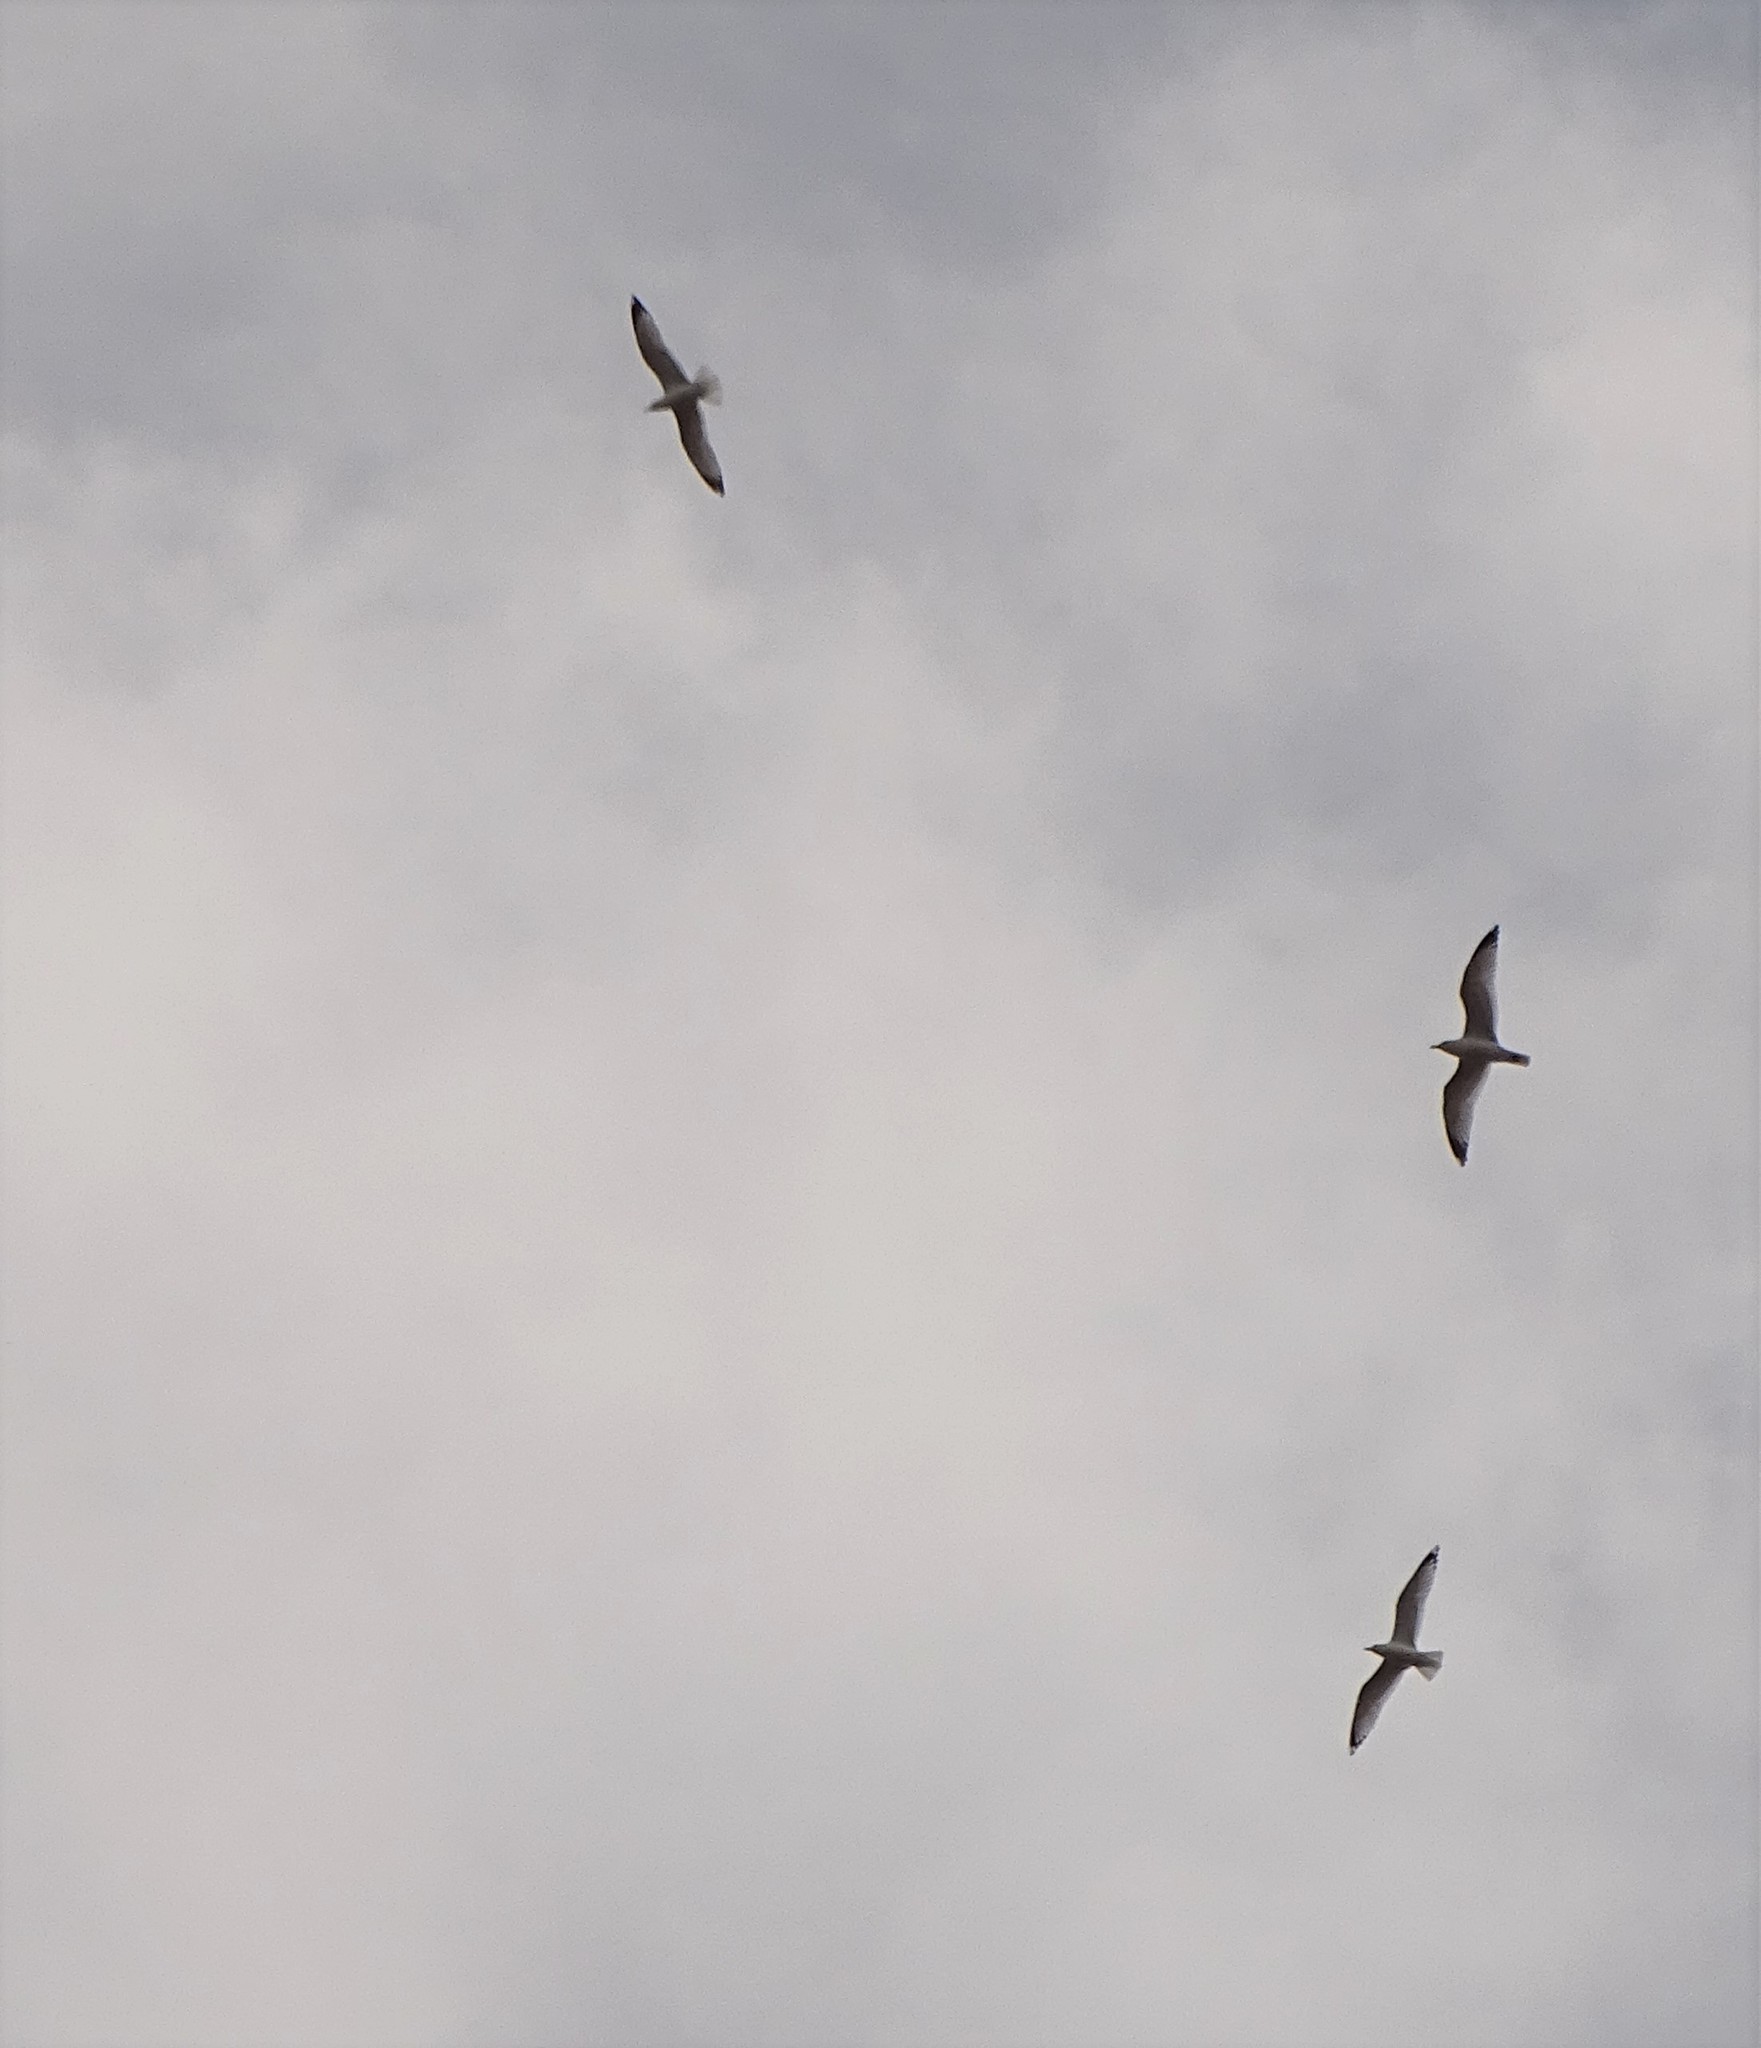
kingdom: Animalia
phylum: Chordata
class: Aves
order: Charadriiformes
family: Laridae
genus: Larus
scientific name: Larus delawarensis
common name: Ring-billed gull
